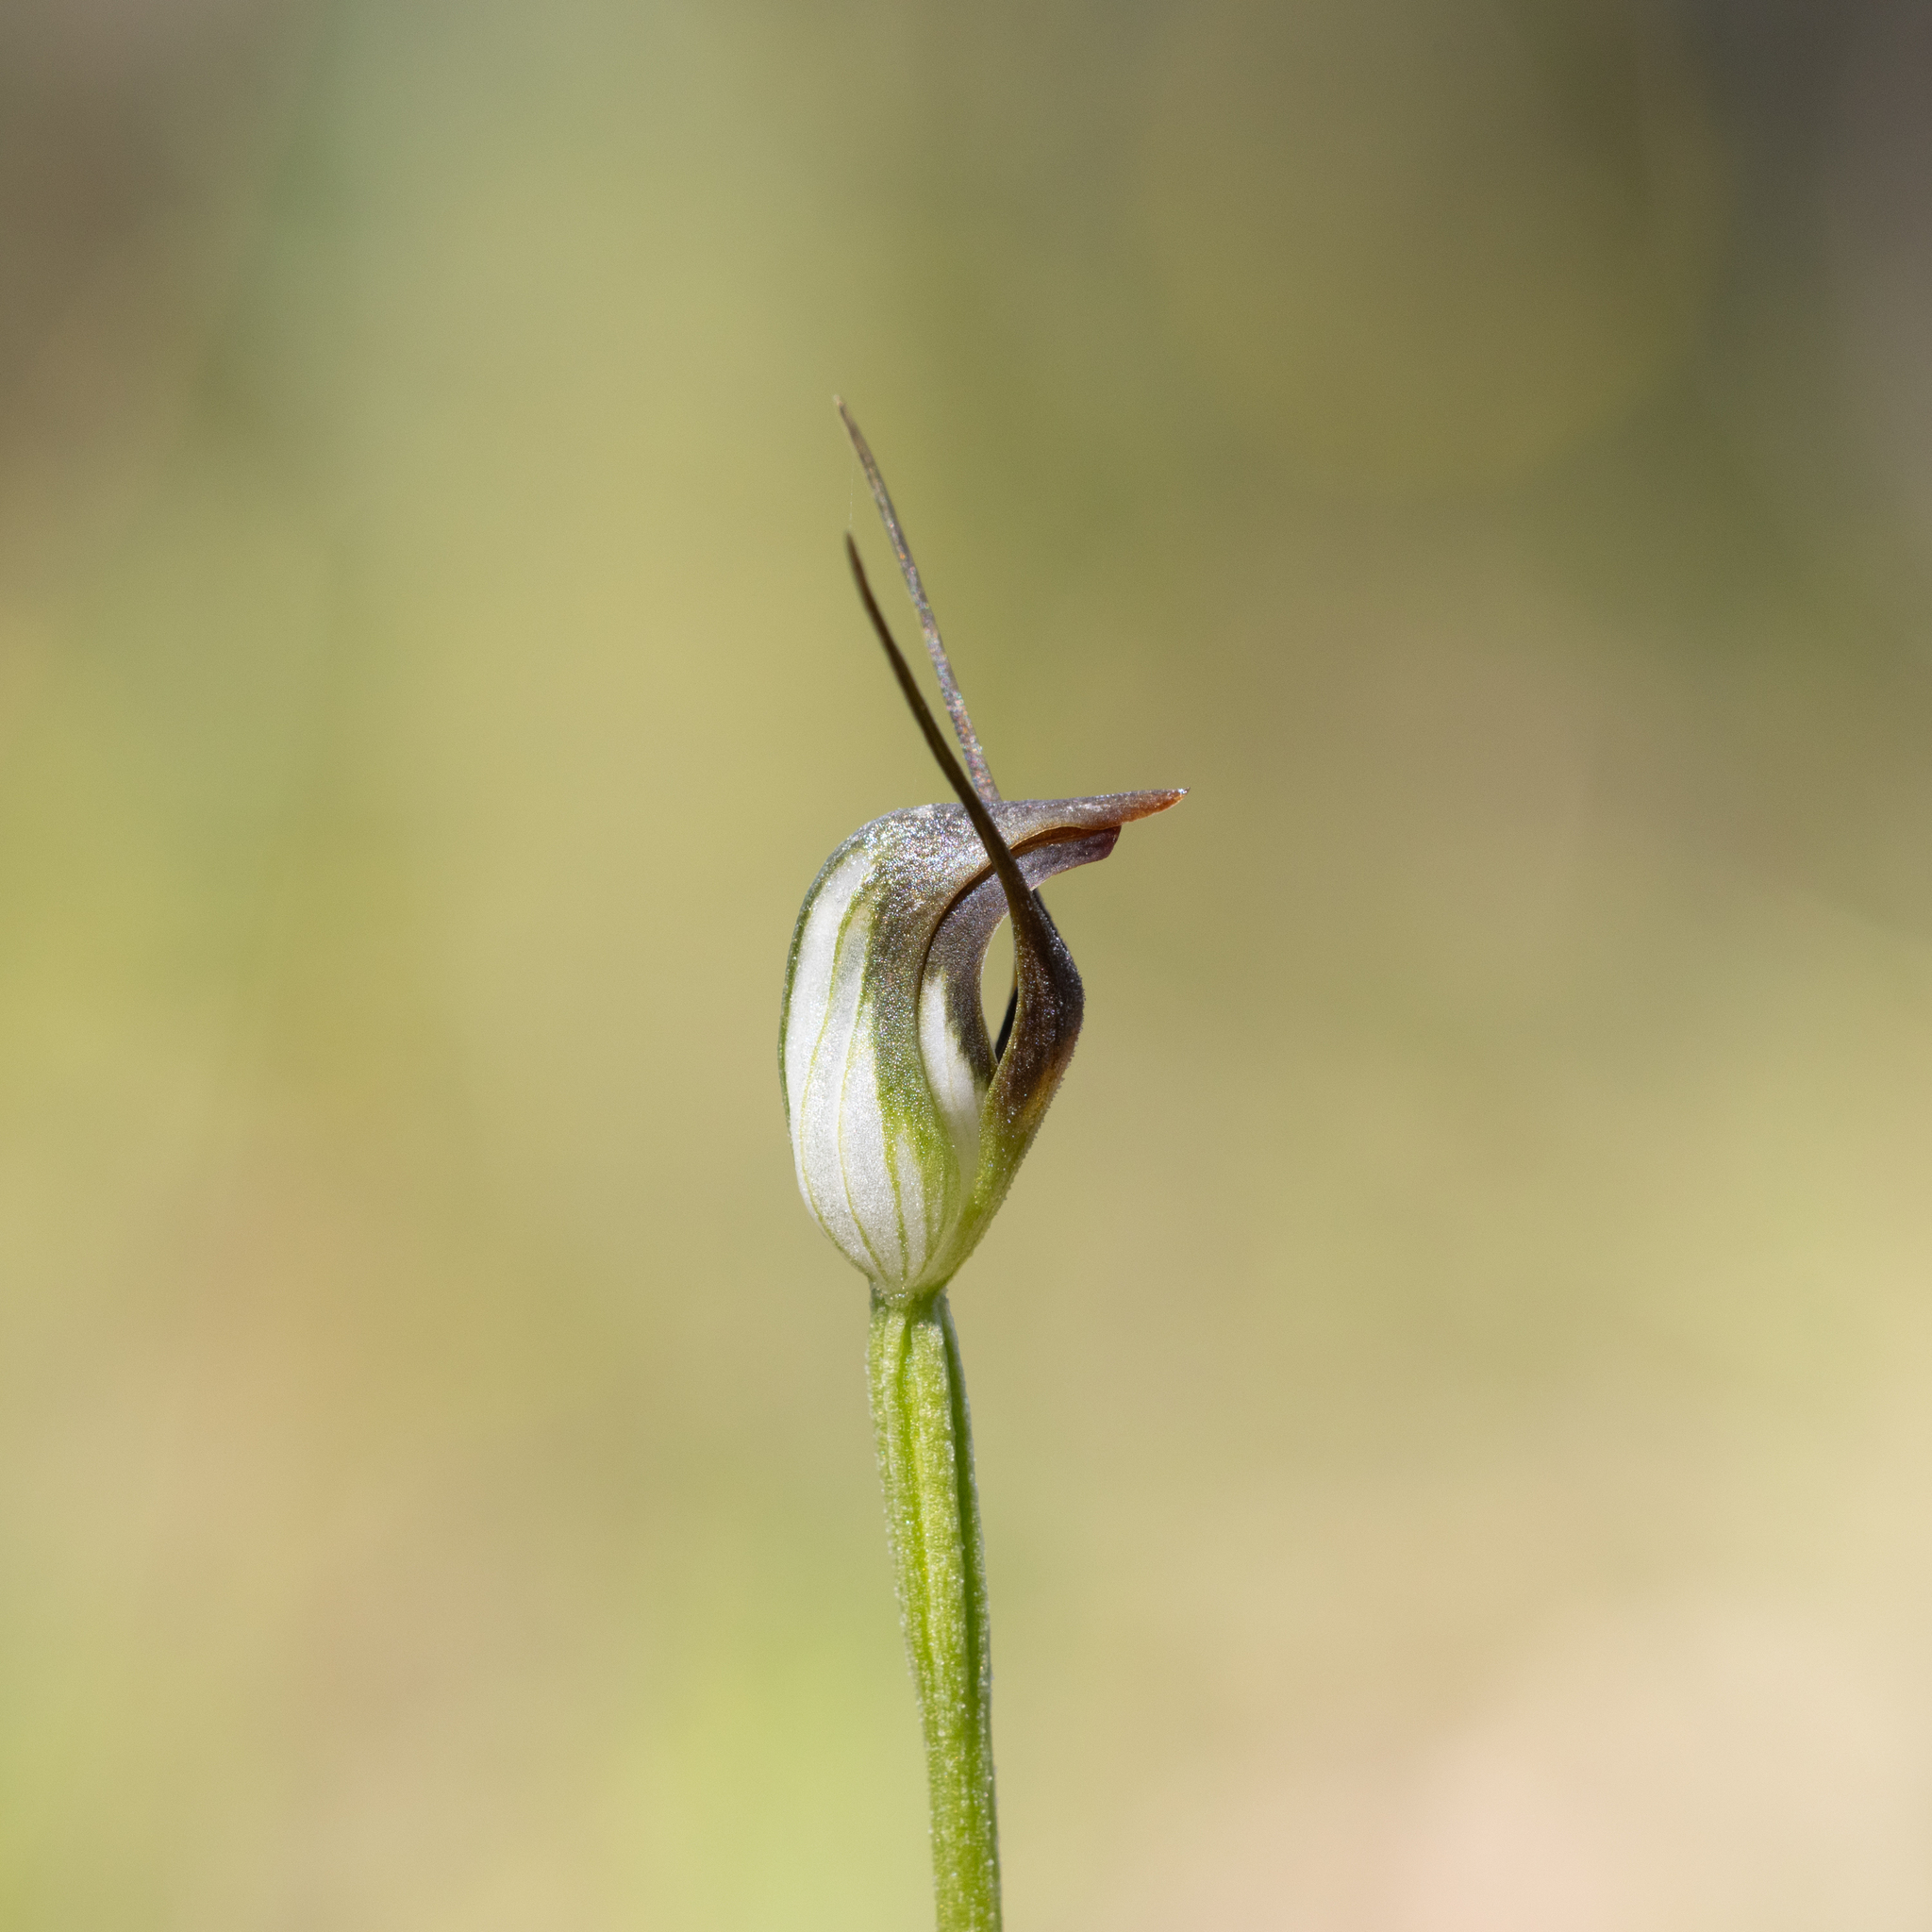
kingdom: Plantae
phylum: Tracheophyta
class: Liliopsida
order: Asparagales
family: Orchidaceae
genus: Pterostylis
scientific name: Pterostylis pedunculata
